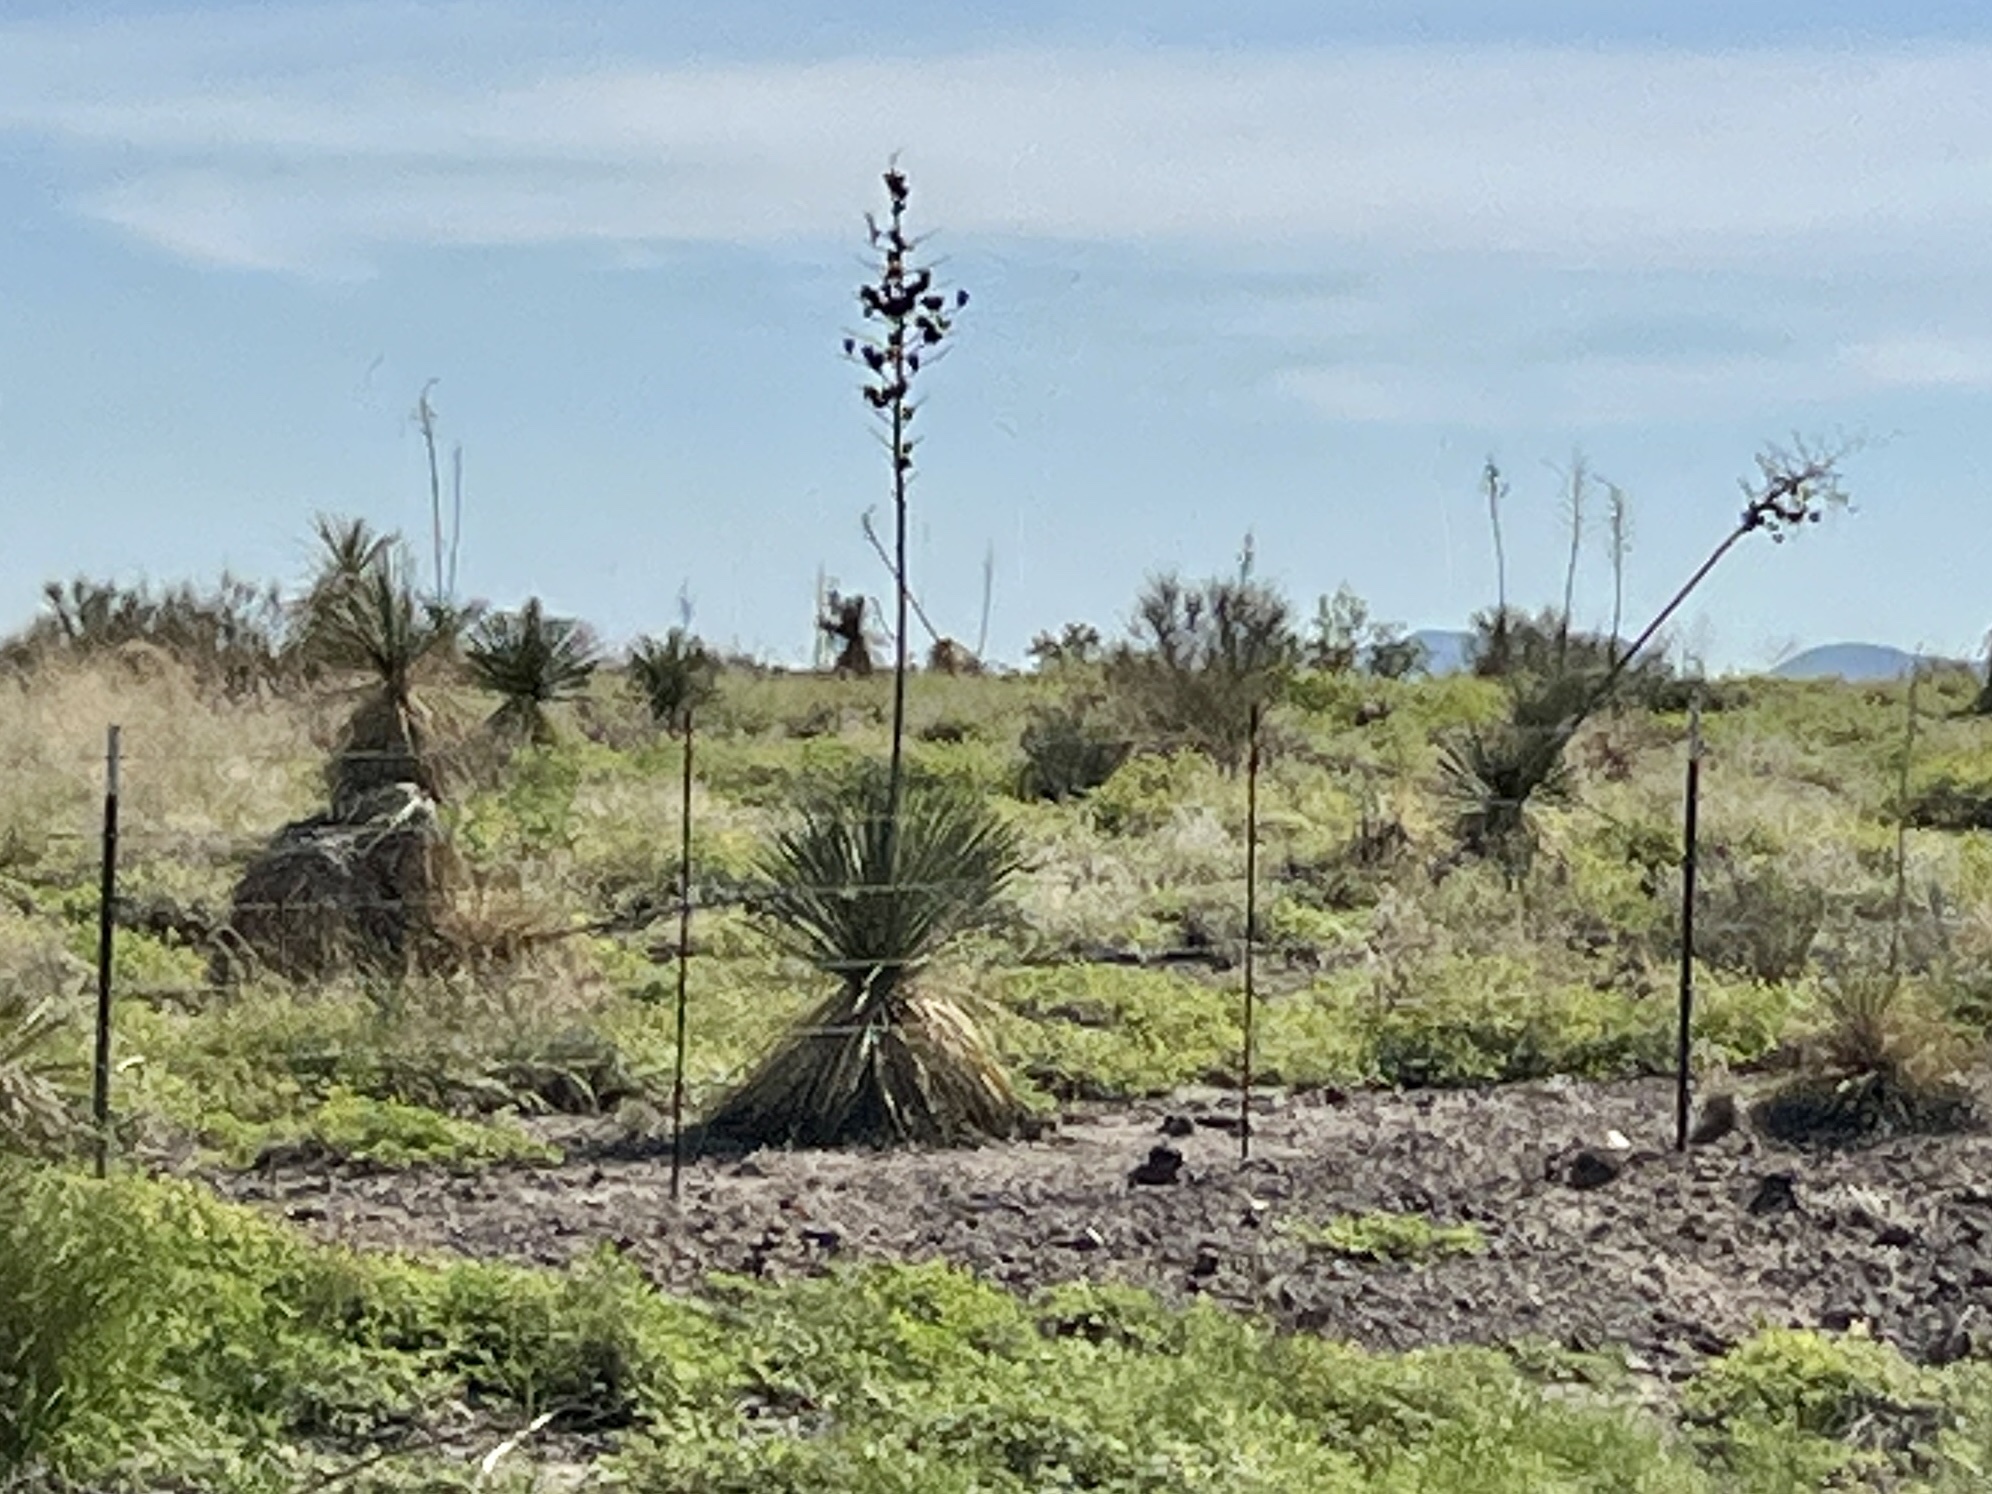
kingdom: Plantae
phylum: Tracheophyta
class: Liliopsida
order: Asparagales
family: Asparagaceae
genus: Yucca
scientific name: Yucca elata
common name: Palmella
